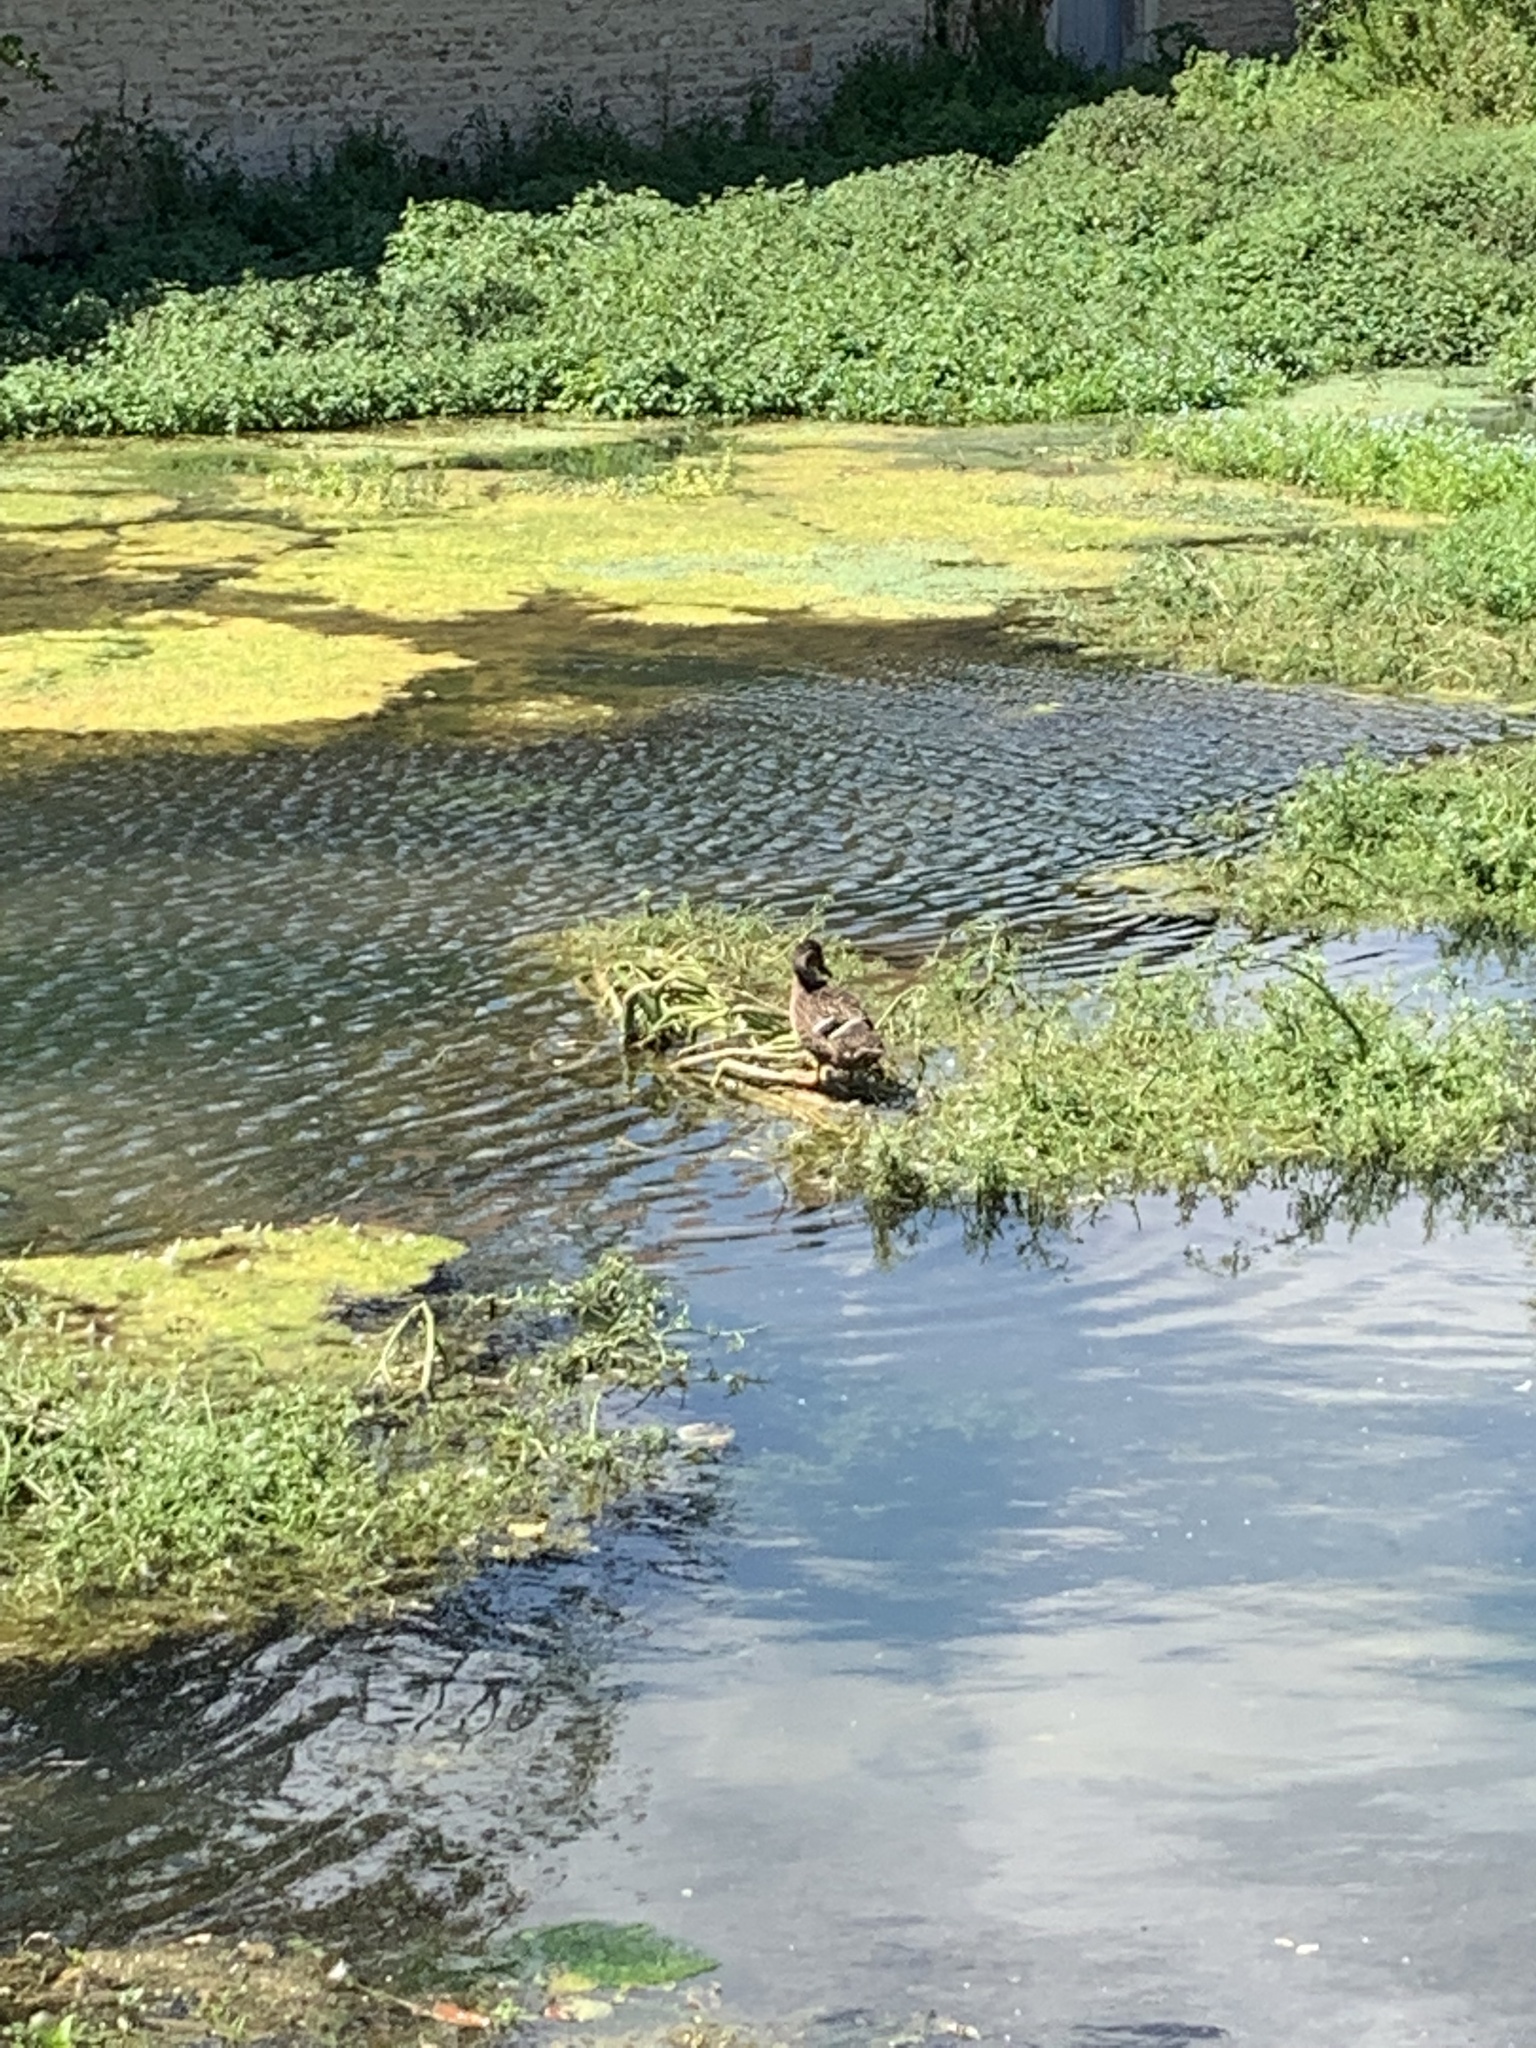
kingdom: Animalia
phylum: Chordata
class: Aves
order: Anseriformes
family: Anatidae
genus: Anas
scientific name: Anas platyrhynchos
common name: Mallard
